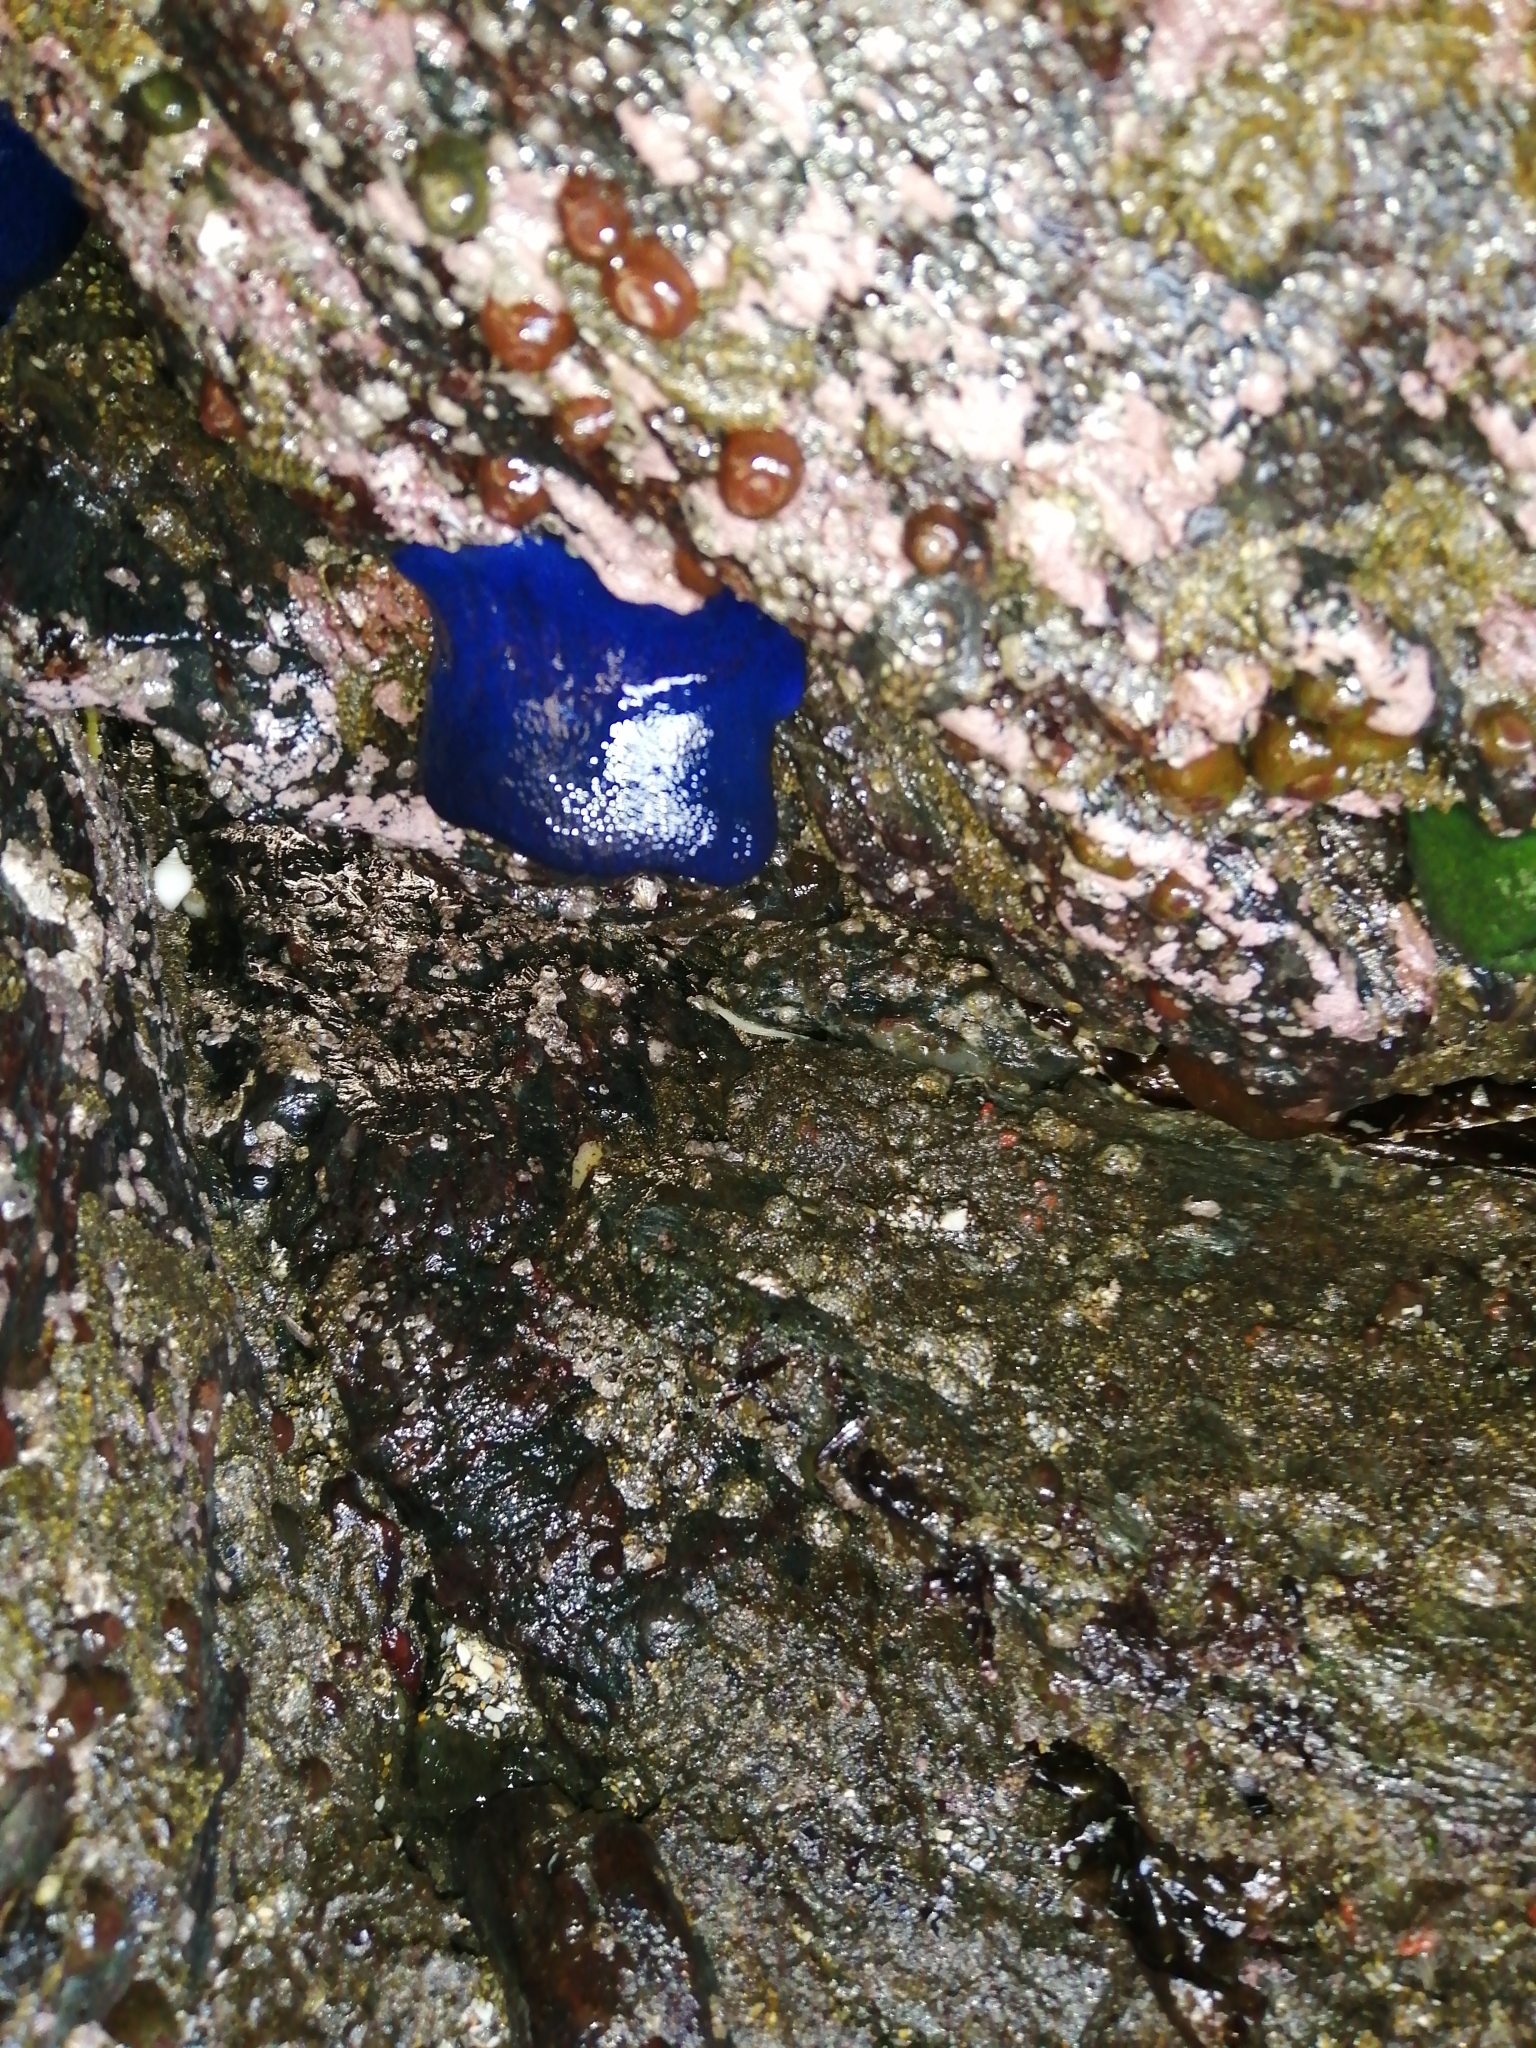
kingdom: Animalia
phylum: Cnidaria
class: Anthozoa
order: Actiniaria
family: Actiniidae
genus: Phymactis
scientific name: Phymactis papillosa
